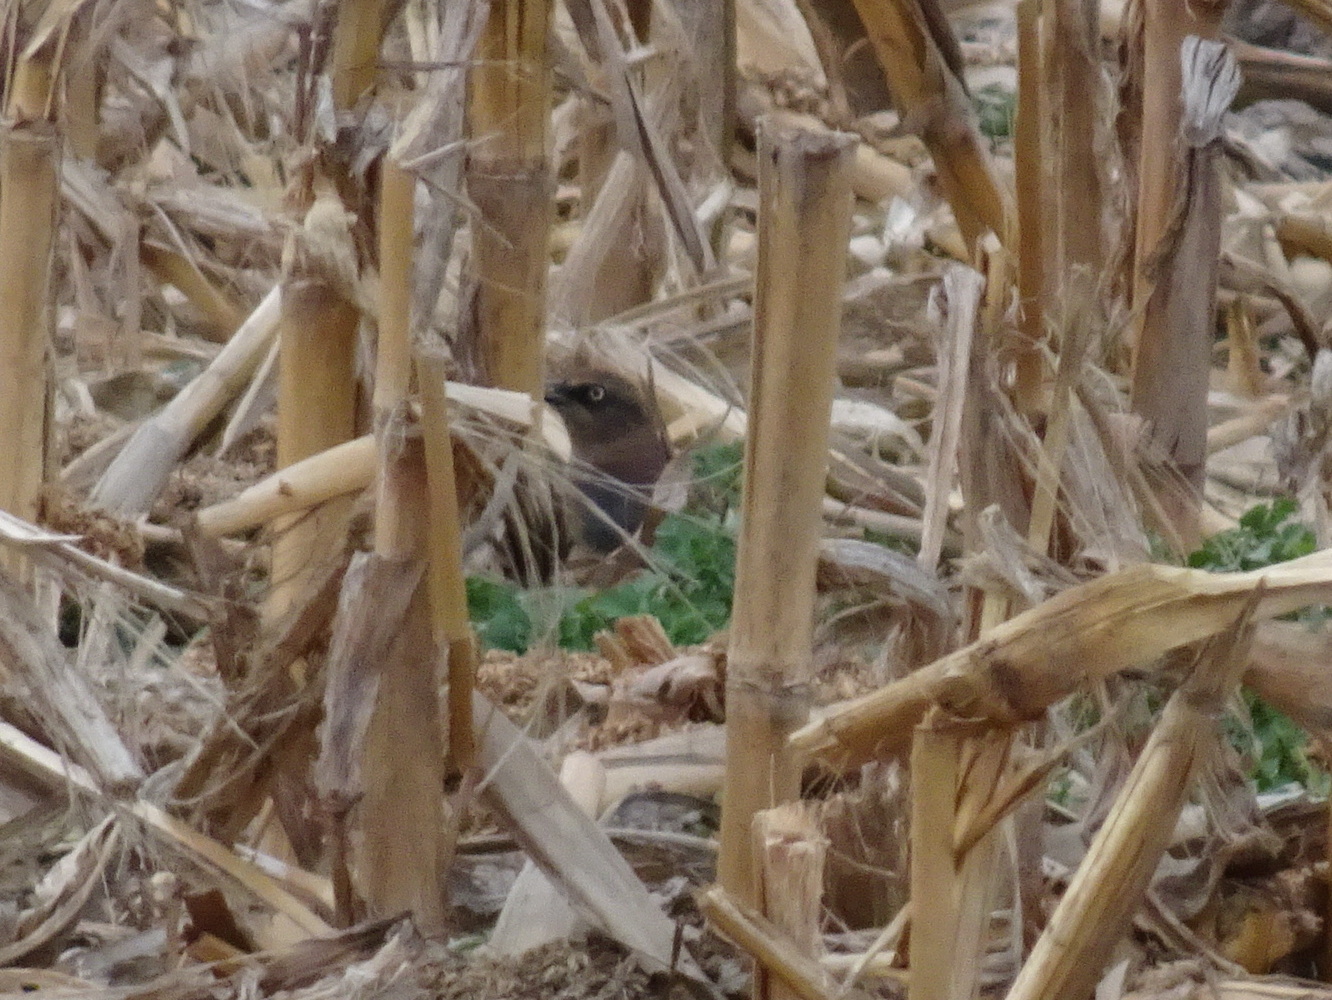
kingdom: Animalia
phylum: Chordata
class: Aves
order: Passeriformes
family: Icteridae
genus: Euphagus
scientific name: Euphagus carolinus
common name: Rusty blackbird
